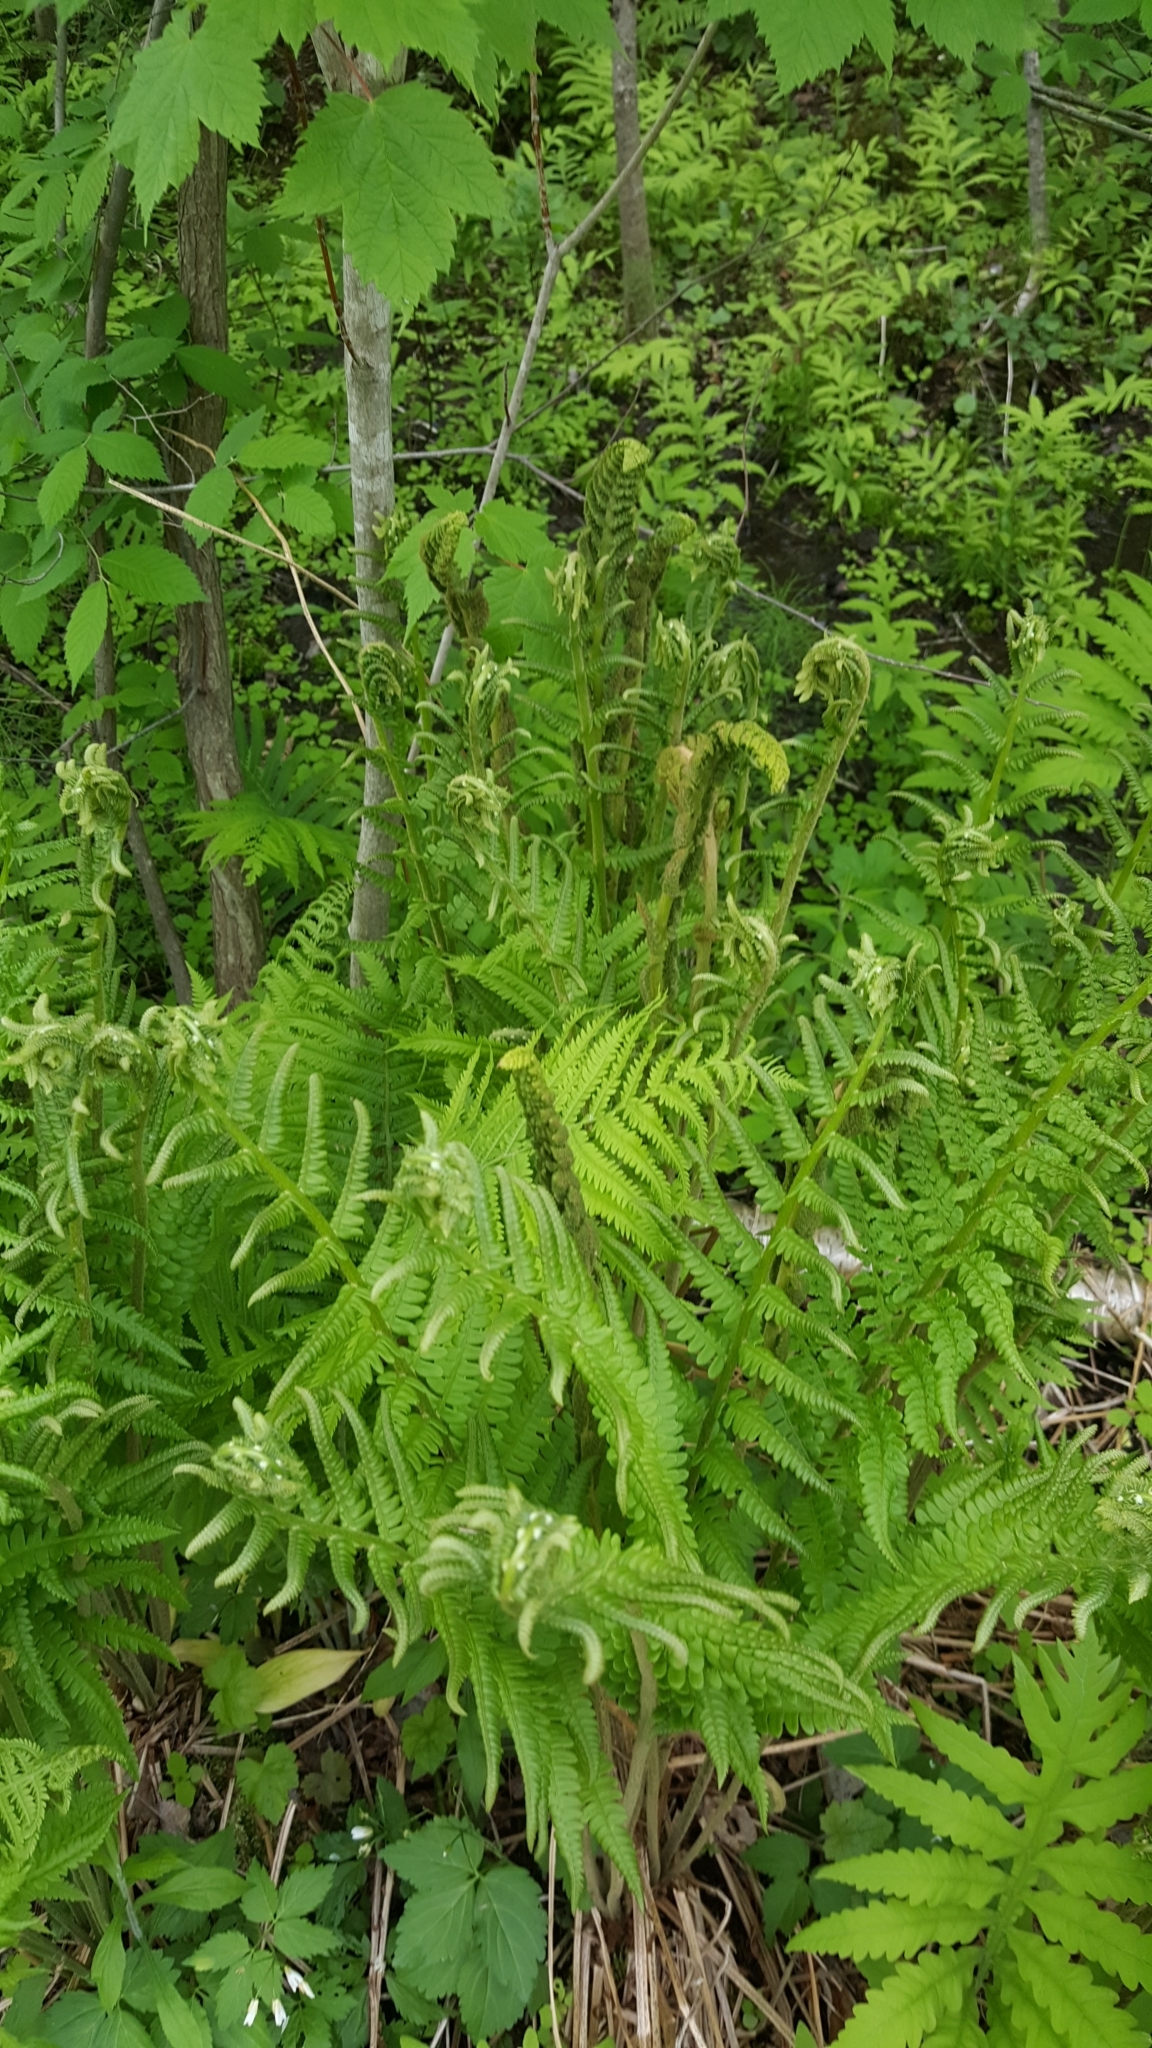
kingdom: Plantae
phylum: Tracheophyta
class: Polypodiopsida
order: Osmundales
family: Osmundaceae
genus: Osmundastrum
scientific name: Osmundastrum cinnamomeum
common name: Cinnamon fern
